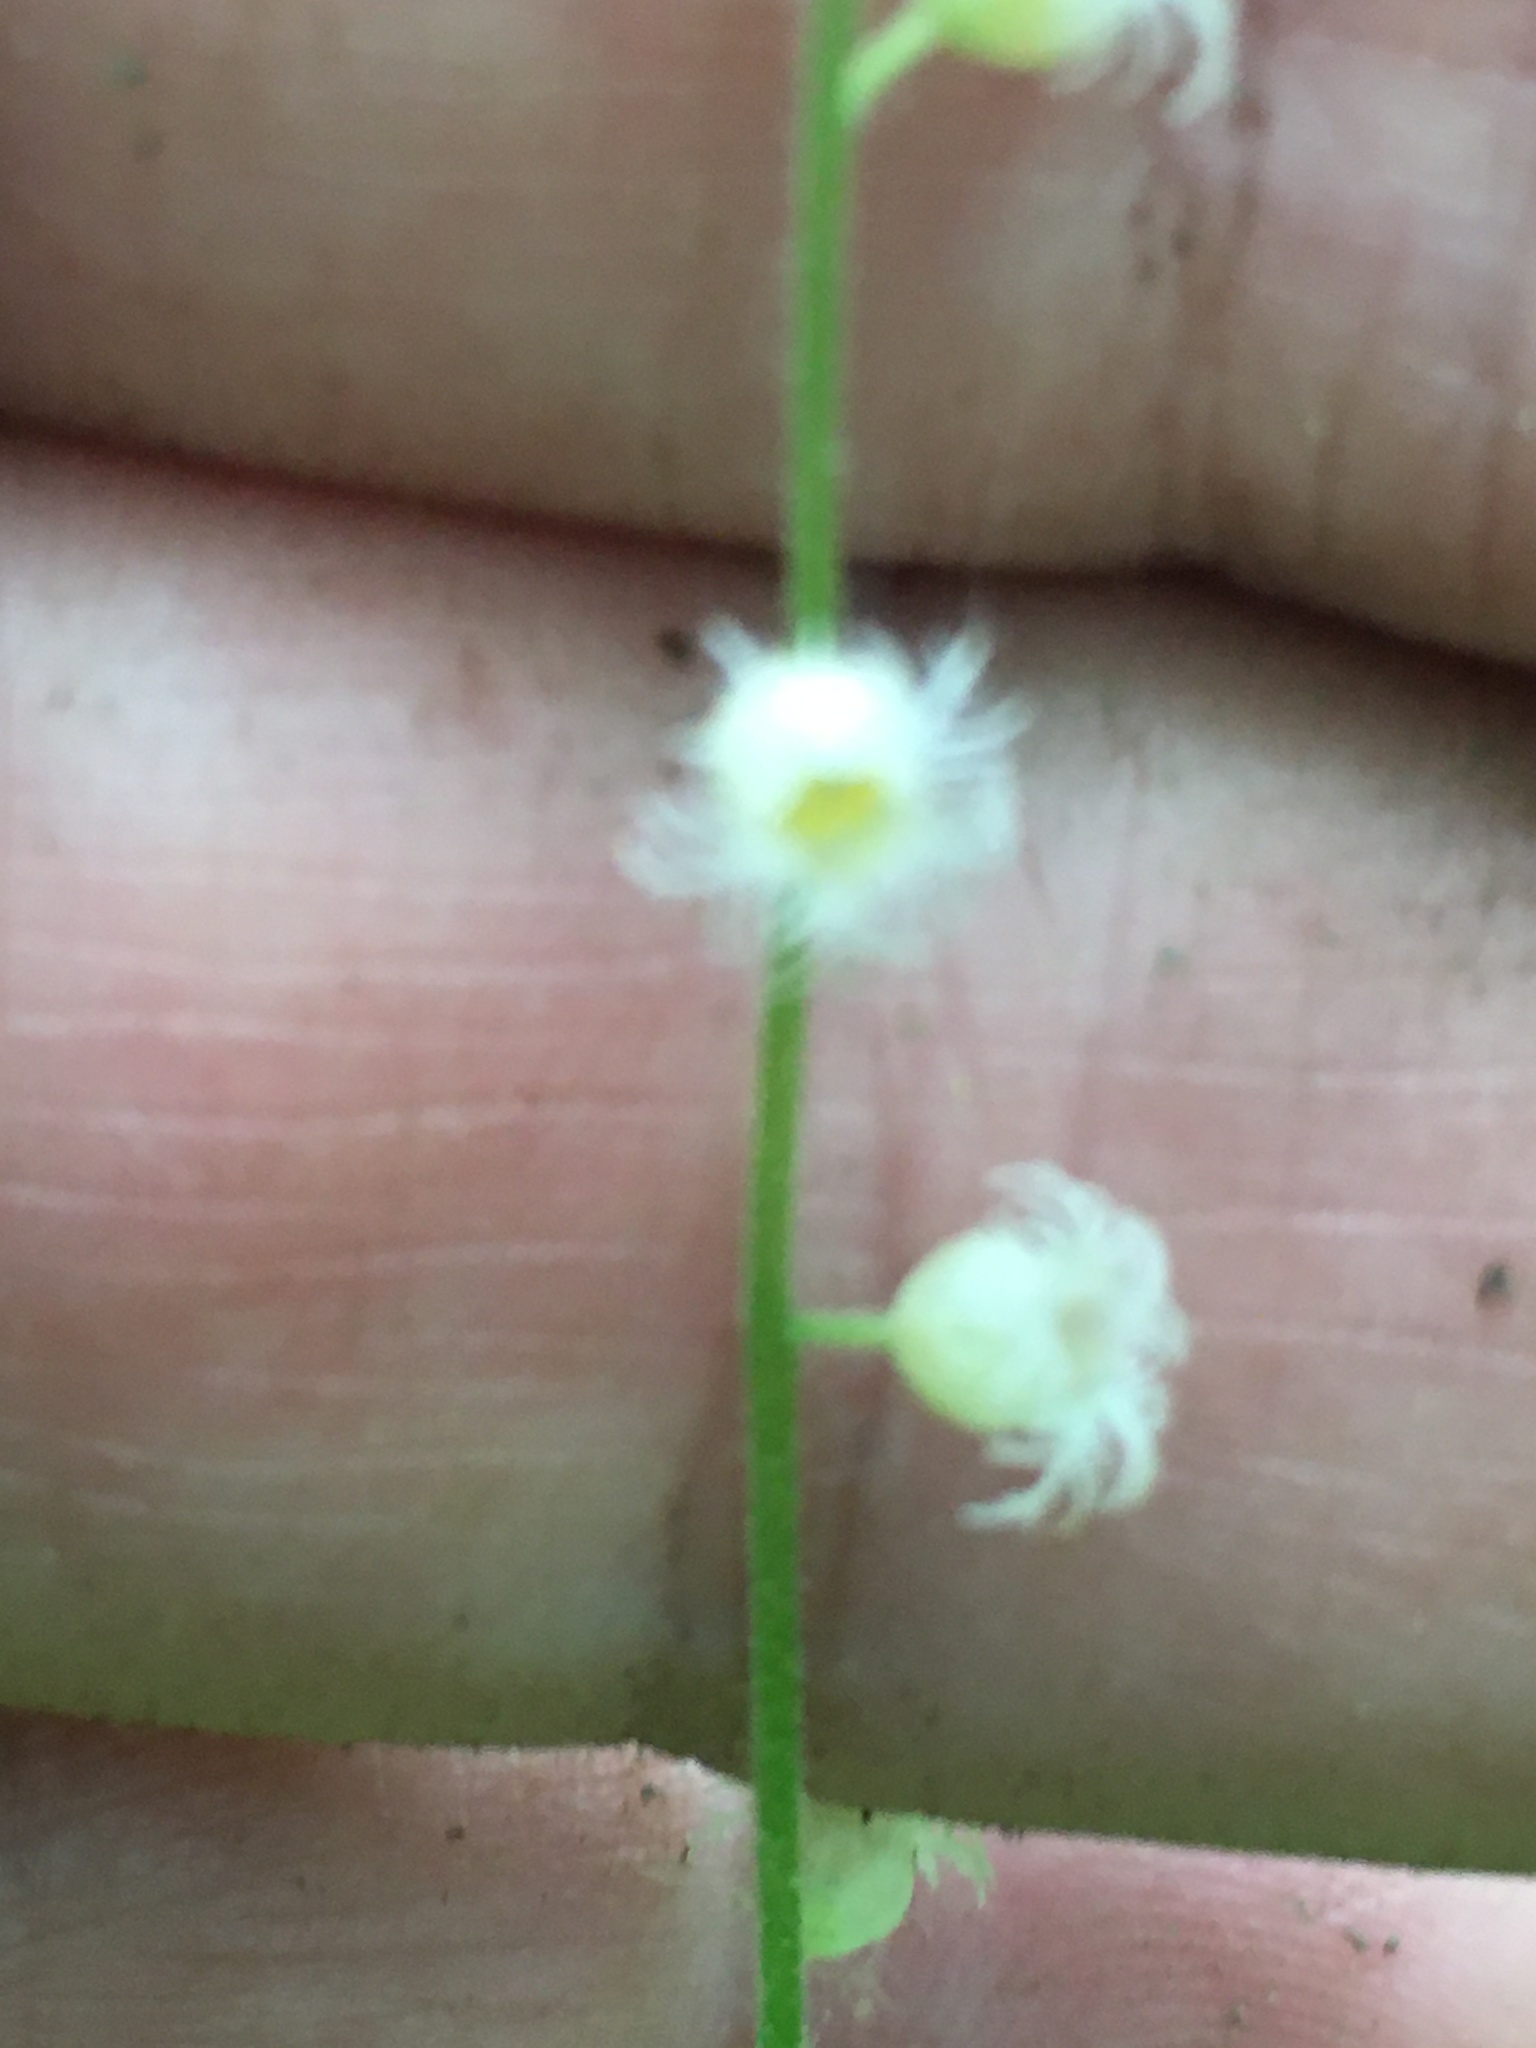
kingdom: Plantae
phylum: Tracheophyta
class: Magnoliopsida
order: Saxifragales
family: Saxifragaceae
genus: Mitella
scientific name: Mitella diphylla
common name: Coolwort
